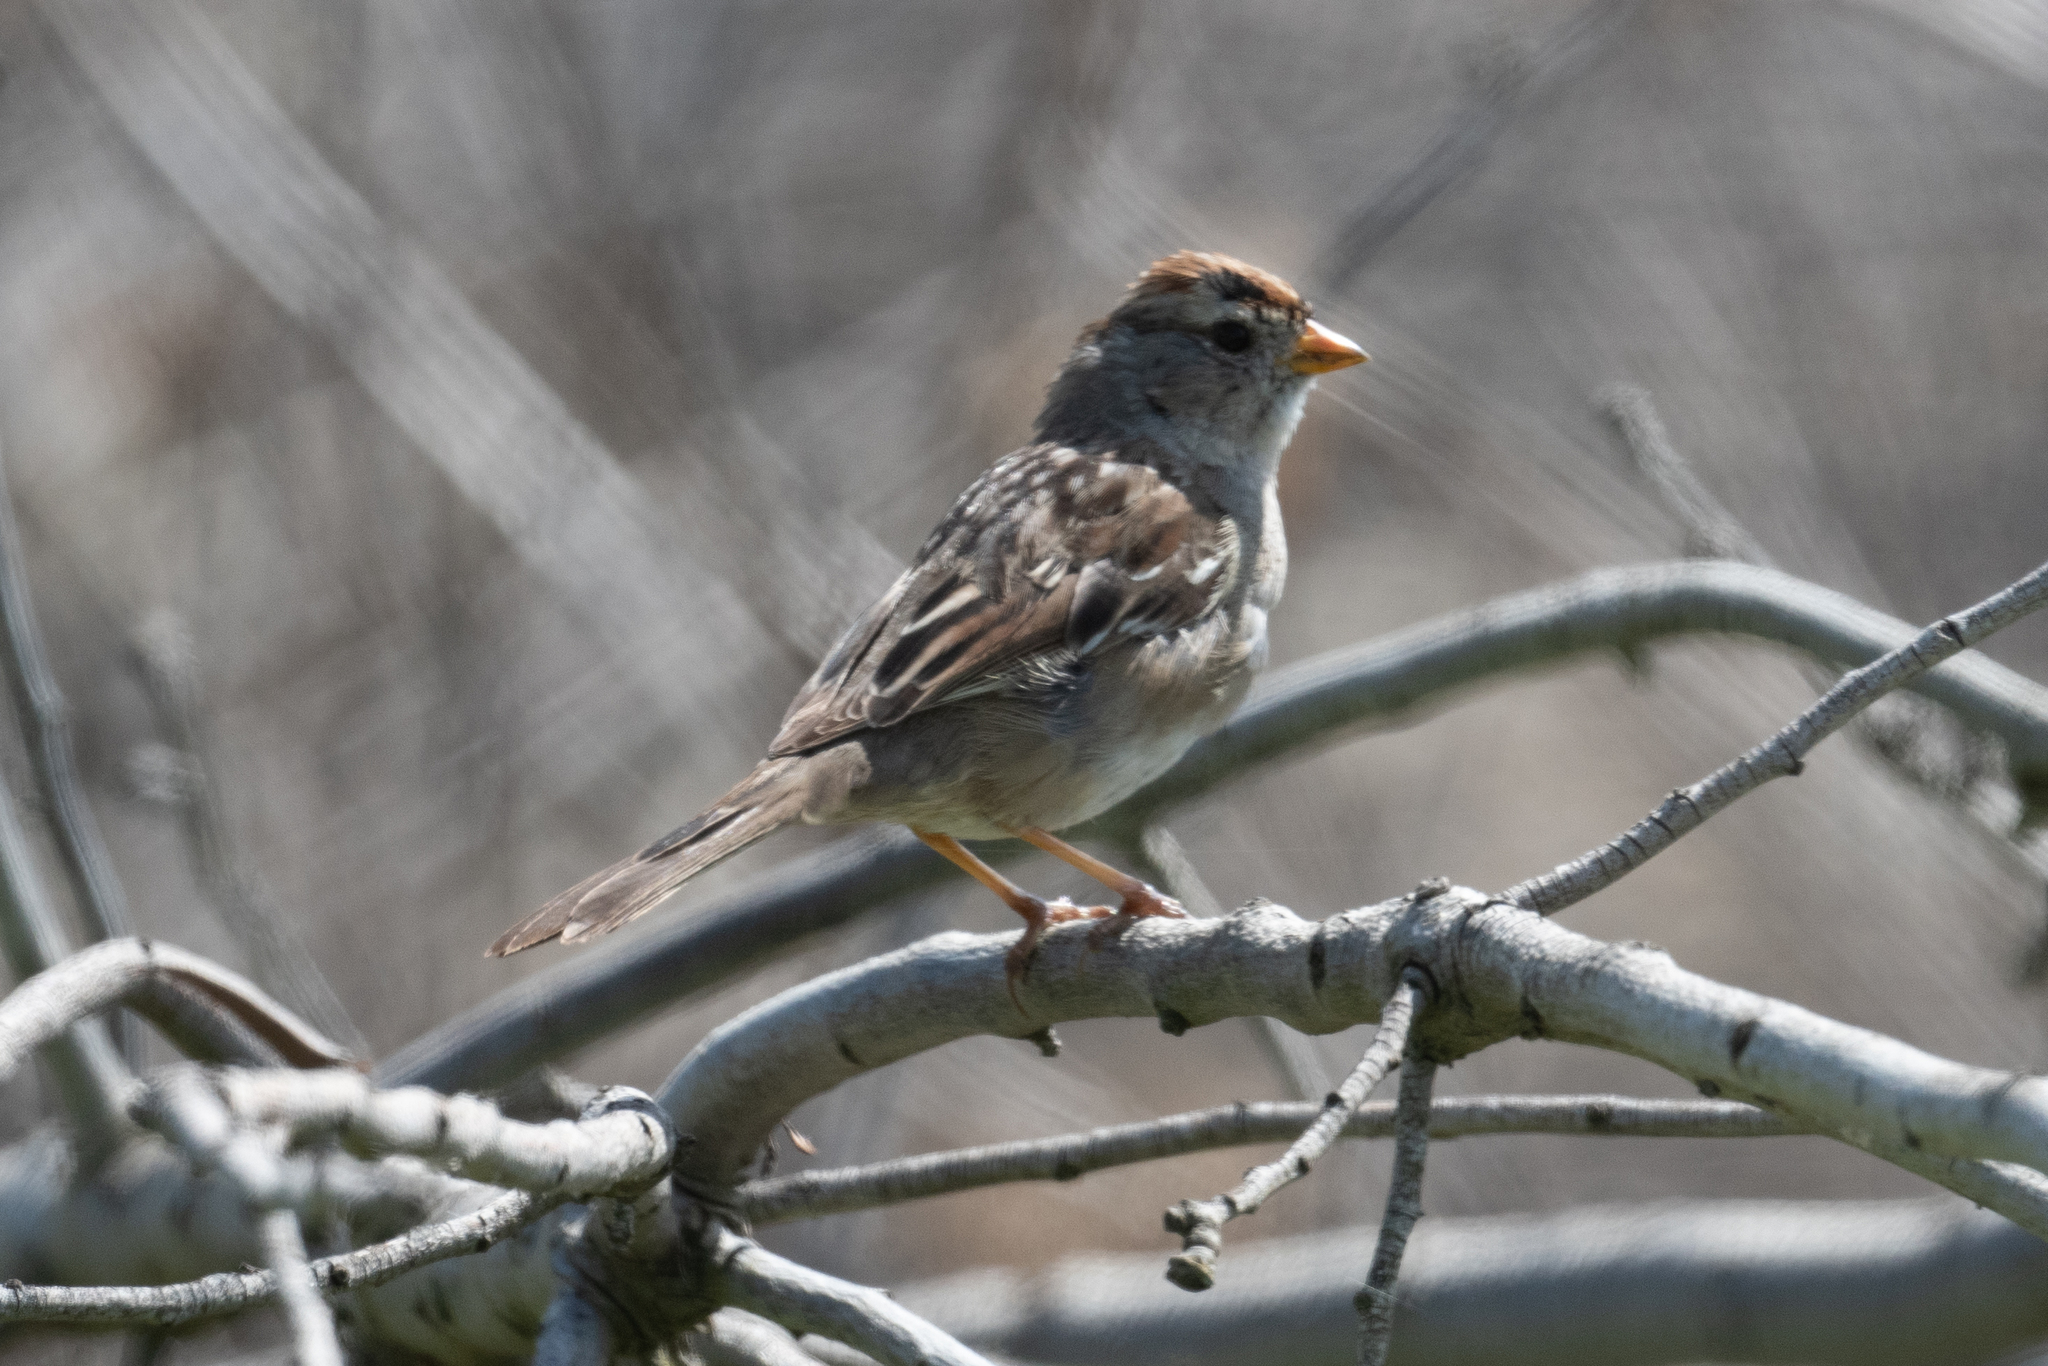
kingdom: Animalia
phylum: Chordata
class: Aves
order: Passeriformes
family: Passerellidae
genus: Zonotrichia
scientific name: Zonotrichia leucophrys
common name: White-crowned sparrow
